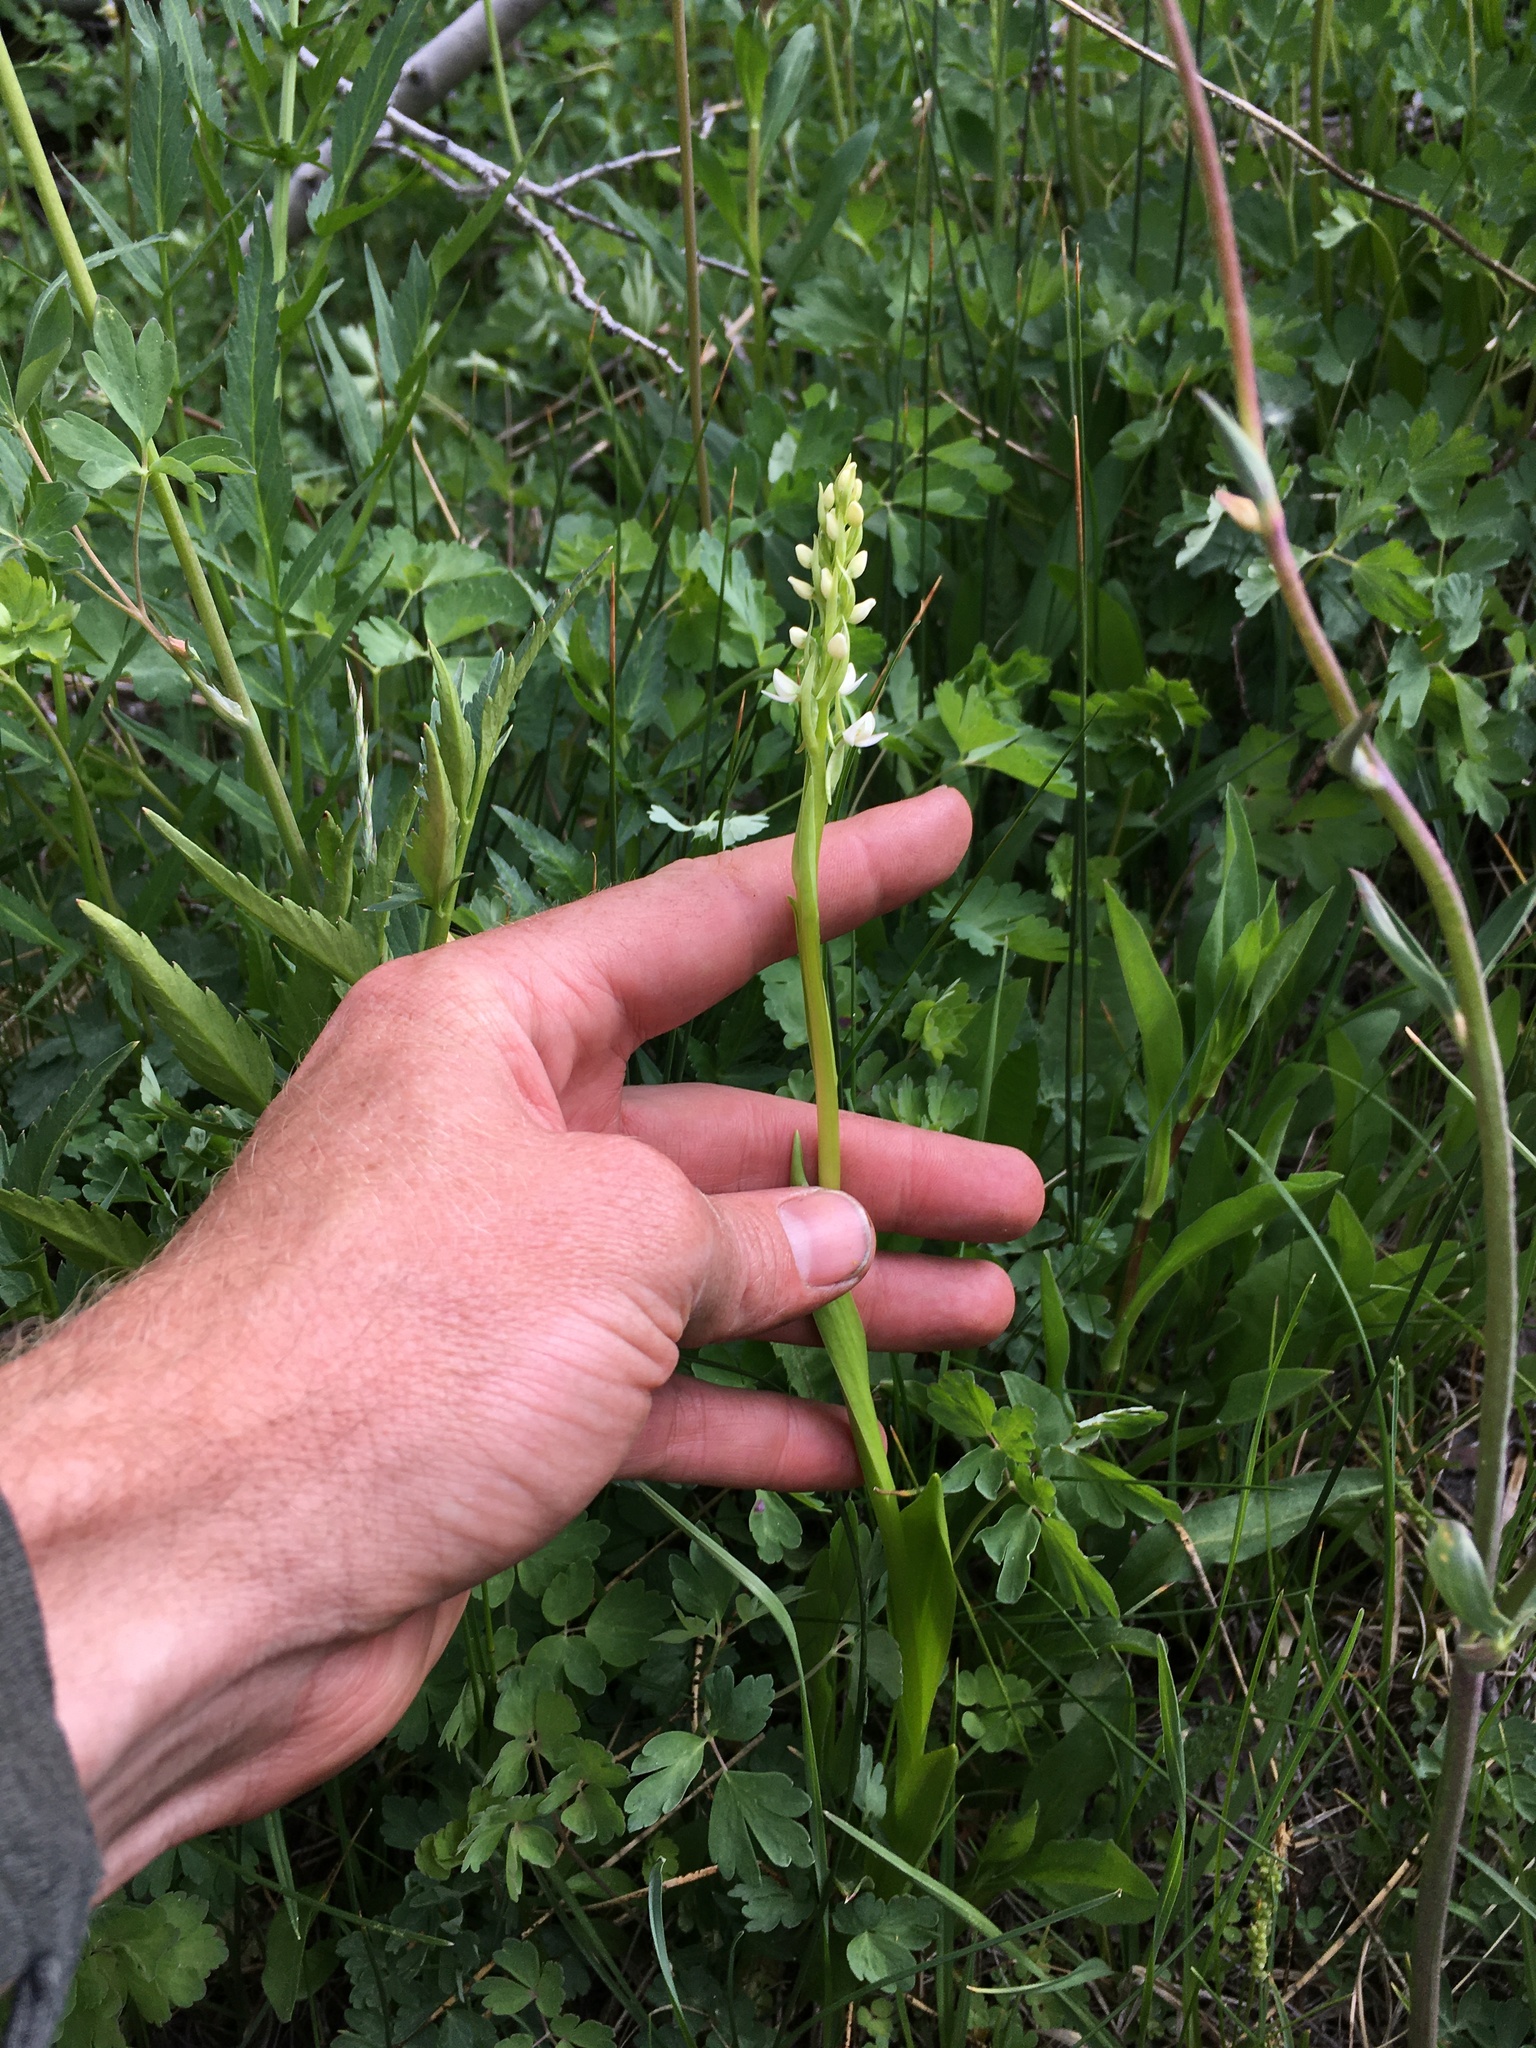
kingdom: Plantae
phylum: Tracheophyta
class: Liliopsida
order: Asparagales
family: Orchidaceae
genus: Platanthera
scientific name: Platanthera dilatata
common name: Bog candles
